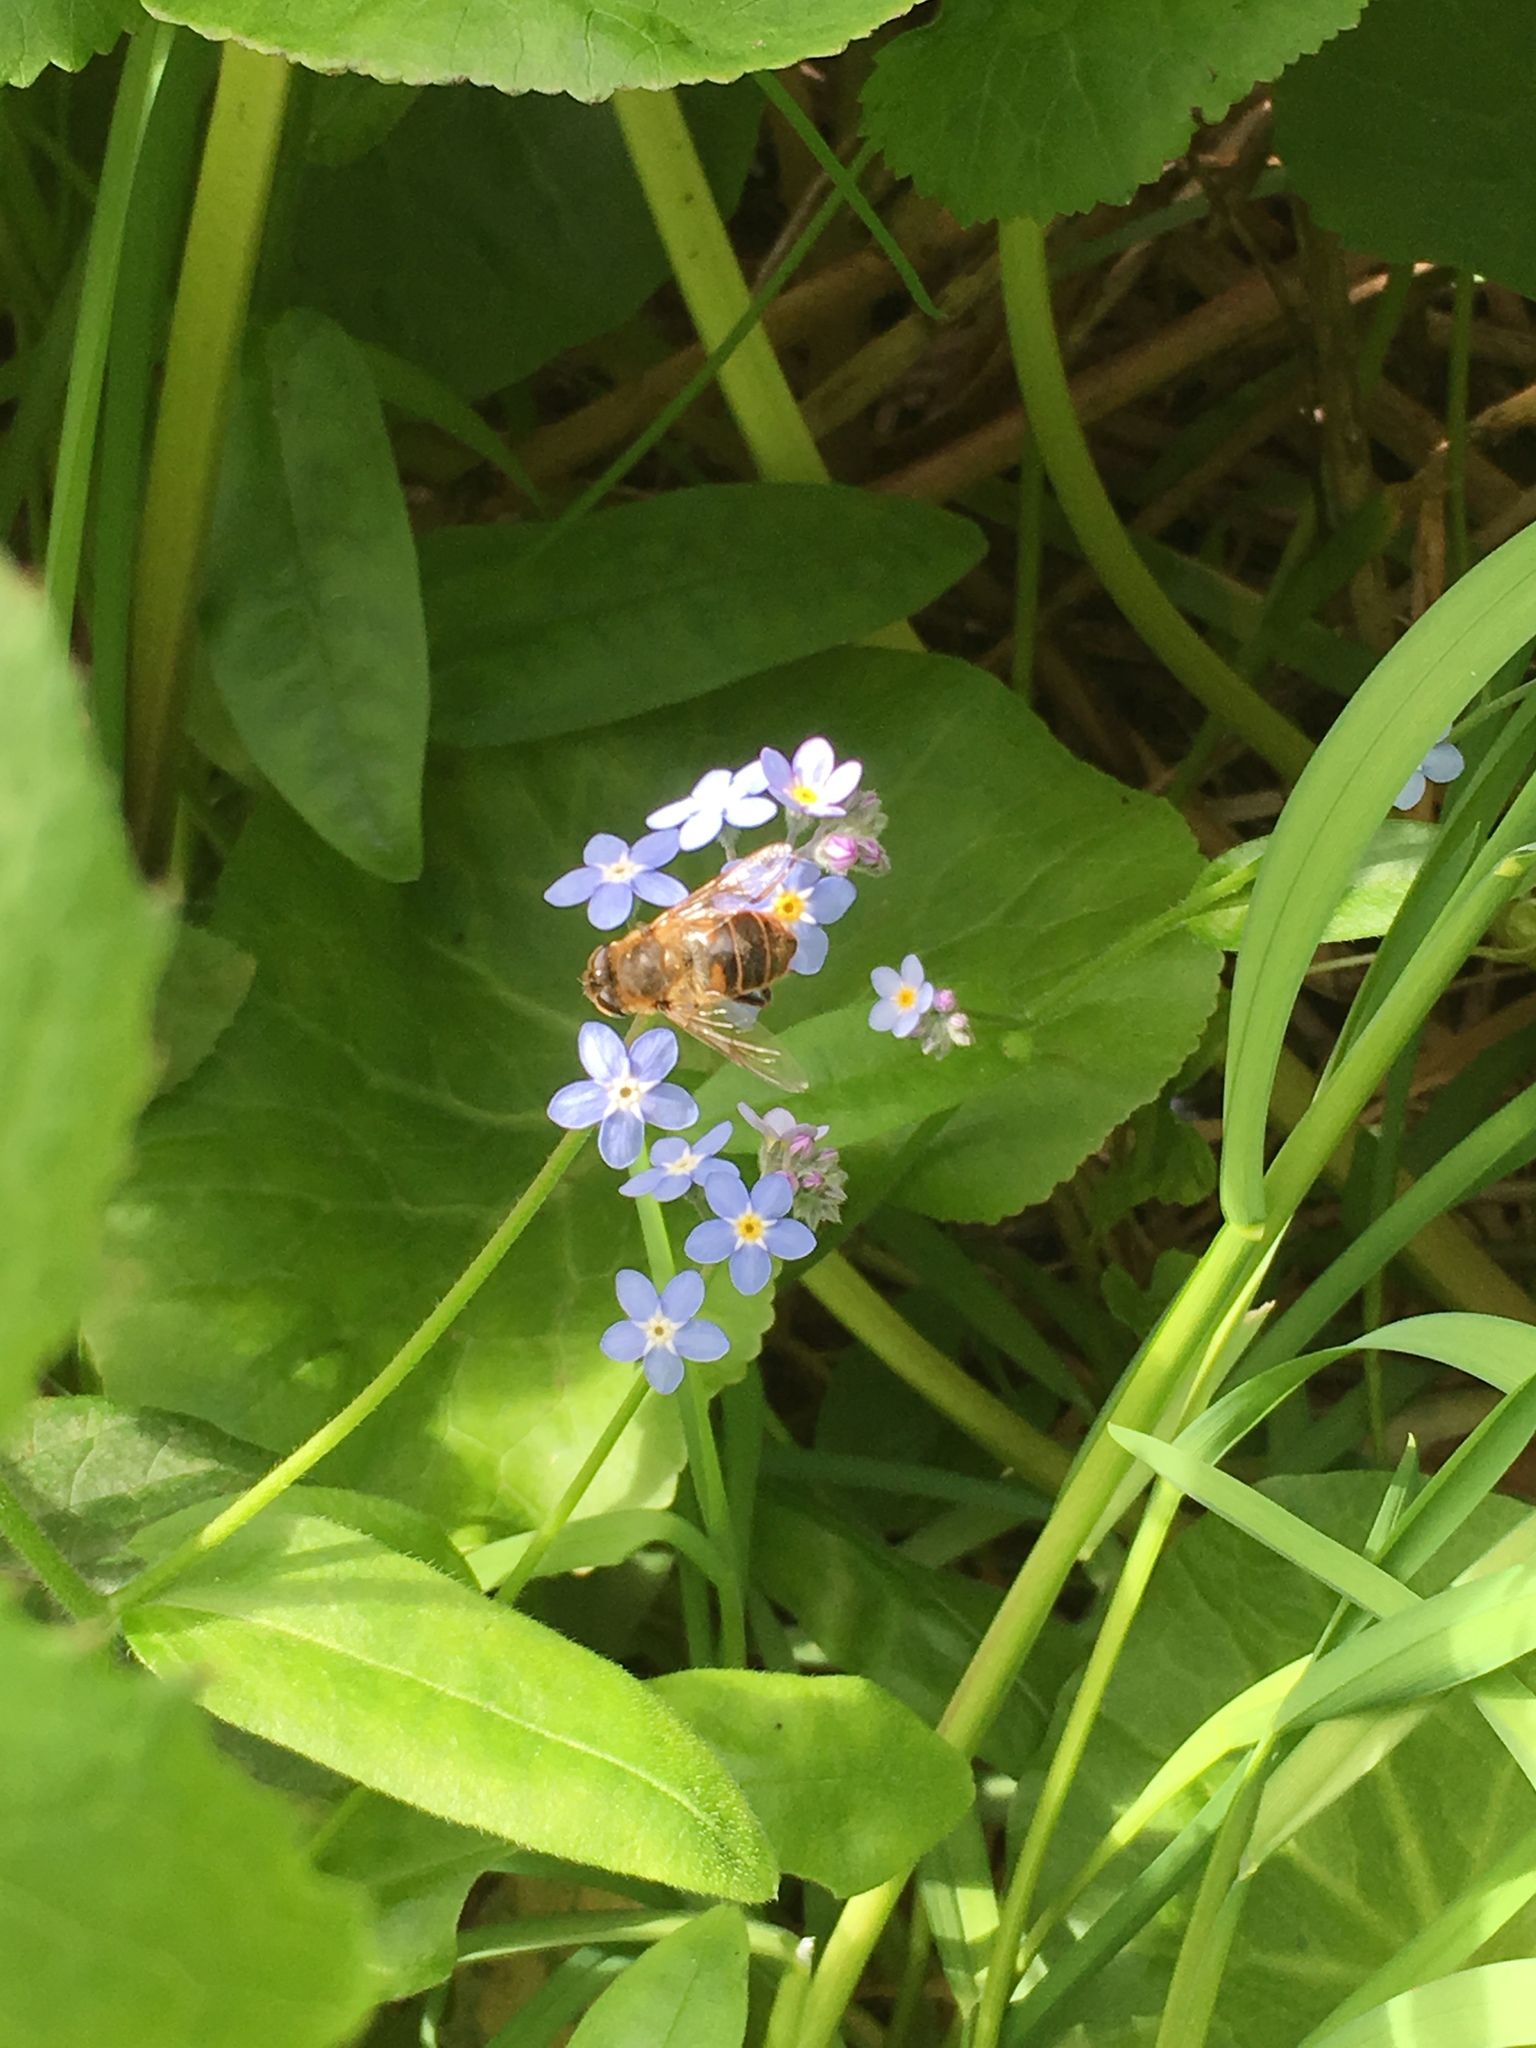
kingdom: Animalia
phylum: Arthropoda
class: Insecta
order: Diptera
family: Syrphidae
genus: Eristalis
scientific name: Eristalis tenax
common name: Drone fly
